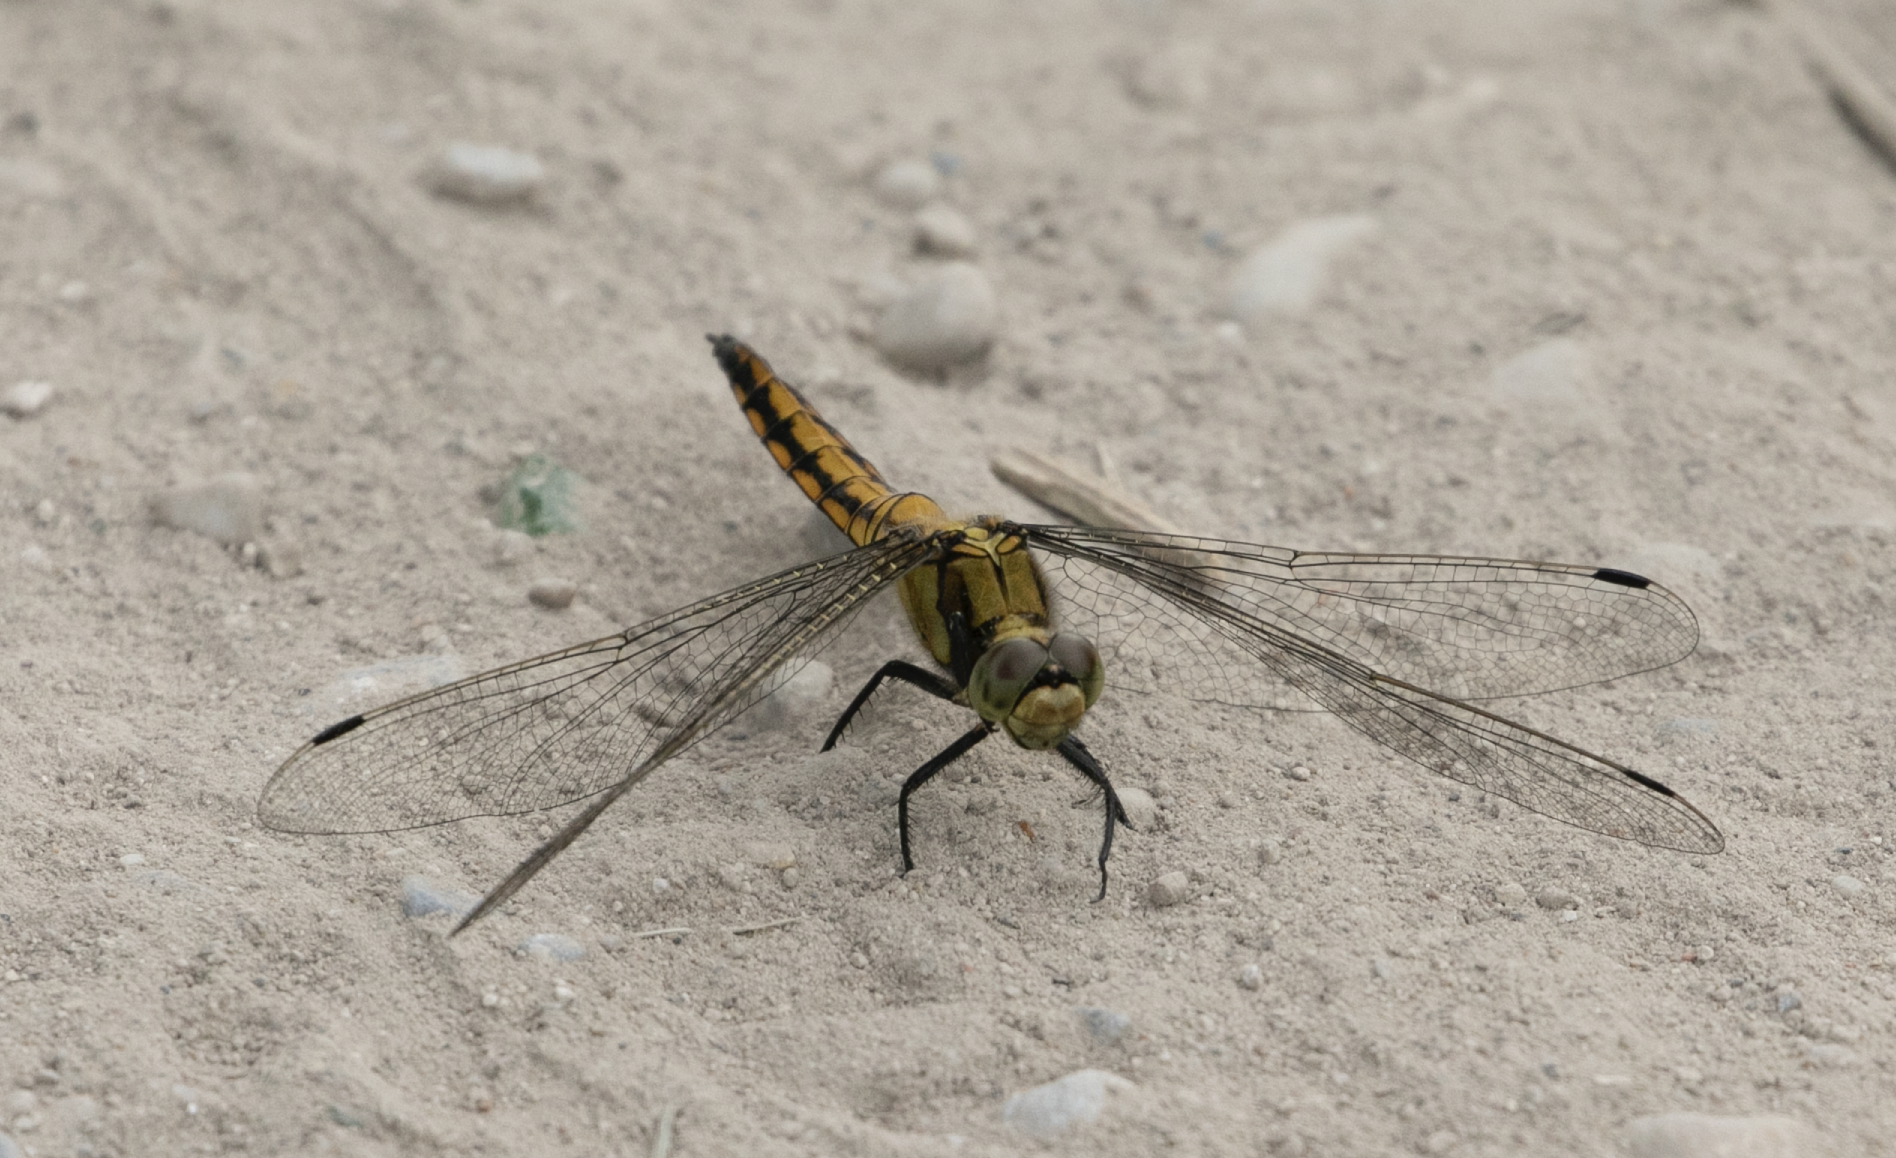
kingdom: Animalia
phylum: Arthropoda
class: Insecta
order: Odonata
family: Libellulidae
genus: Orthetrum
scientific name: Orthetrum cancellatum
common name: Black-tailed skimmer
